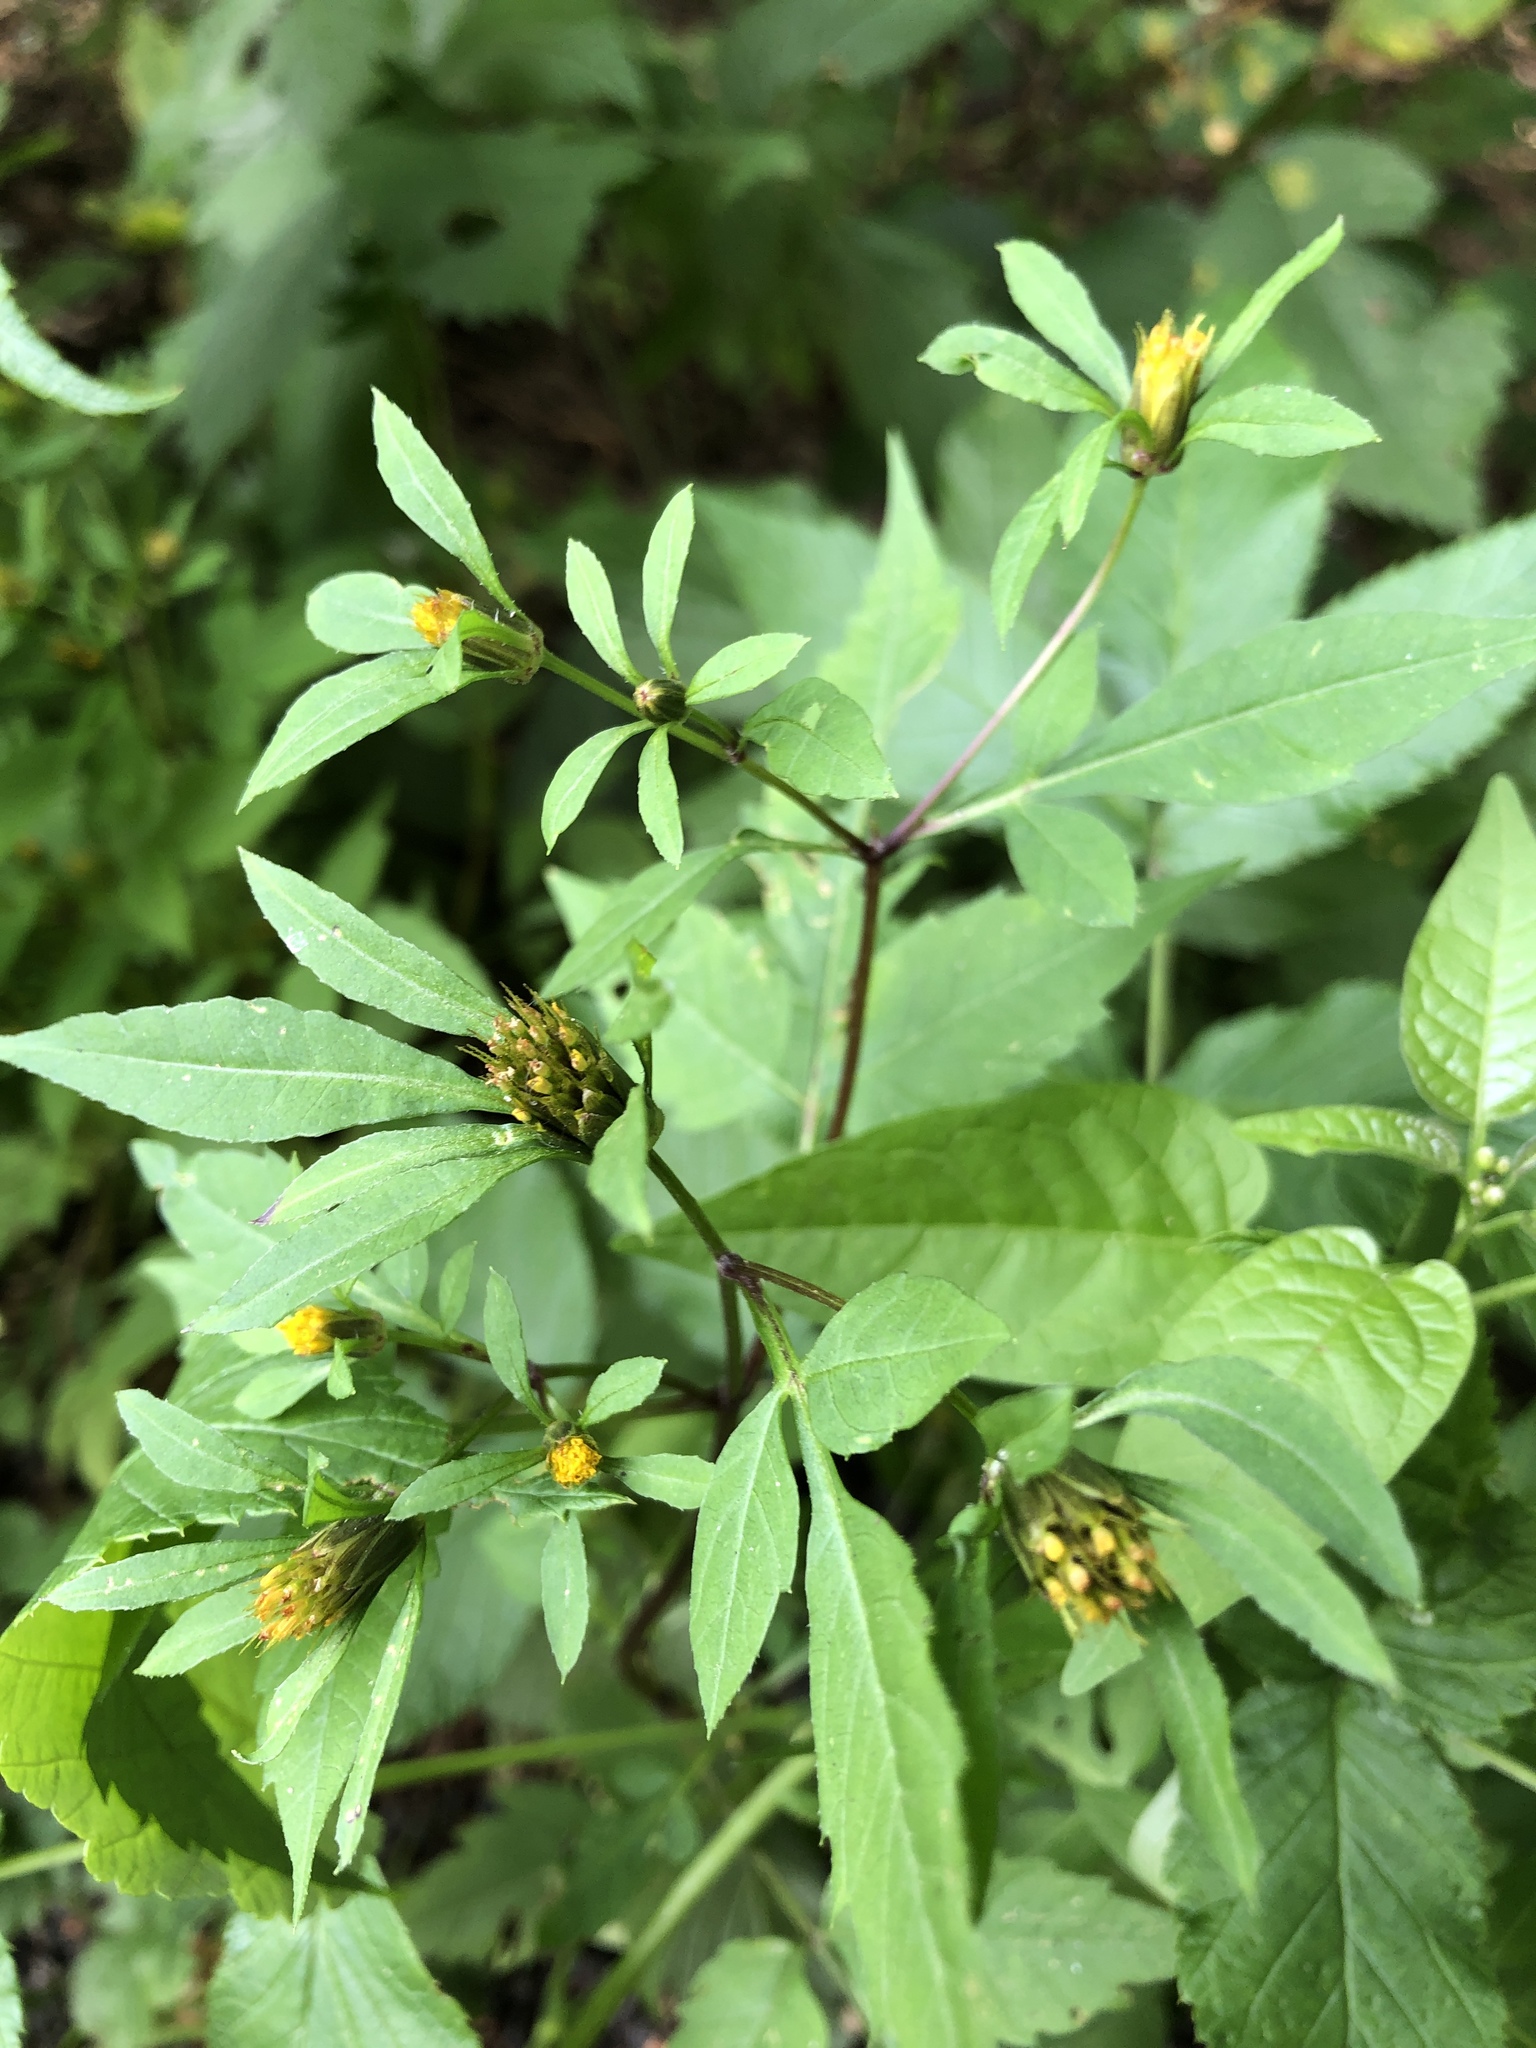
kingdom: Plantae
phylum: Tracheophyta
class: Magnoliopsida
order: Asterales
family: Asteraceae
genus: Bidens
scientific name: Bidens frondosa
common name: Beggarticks
